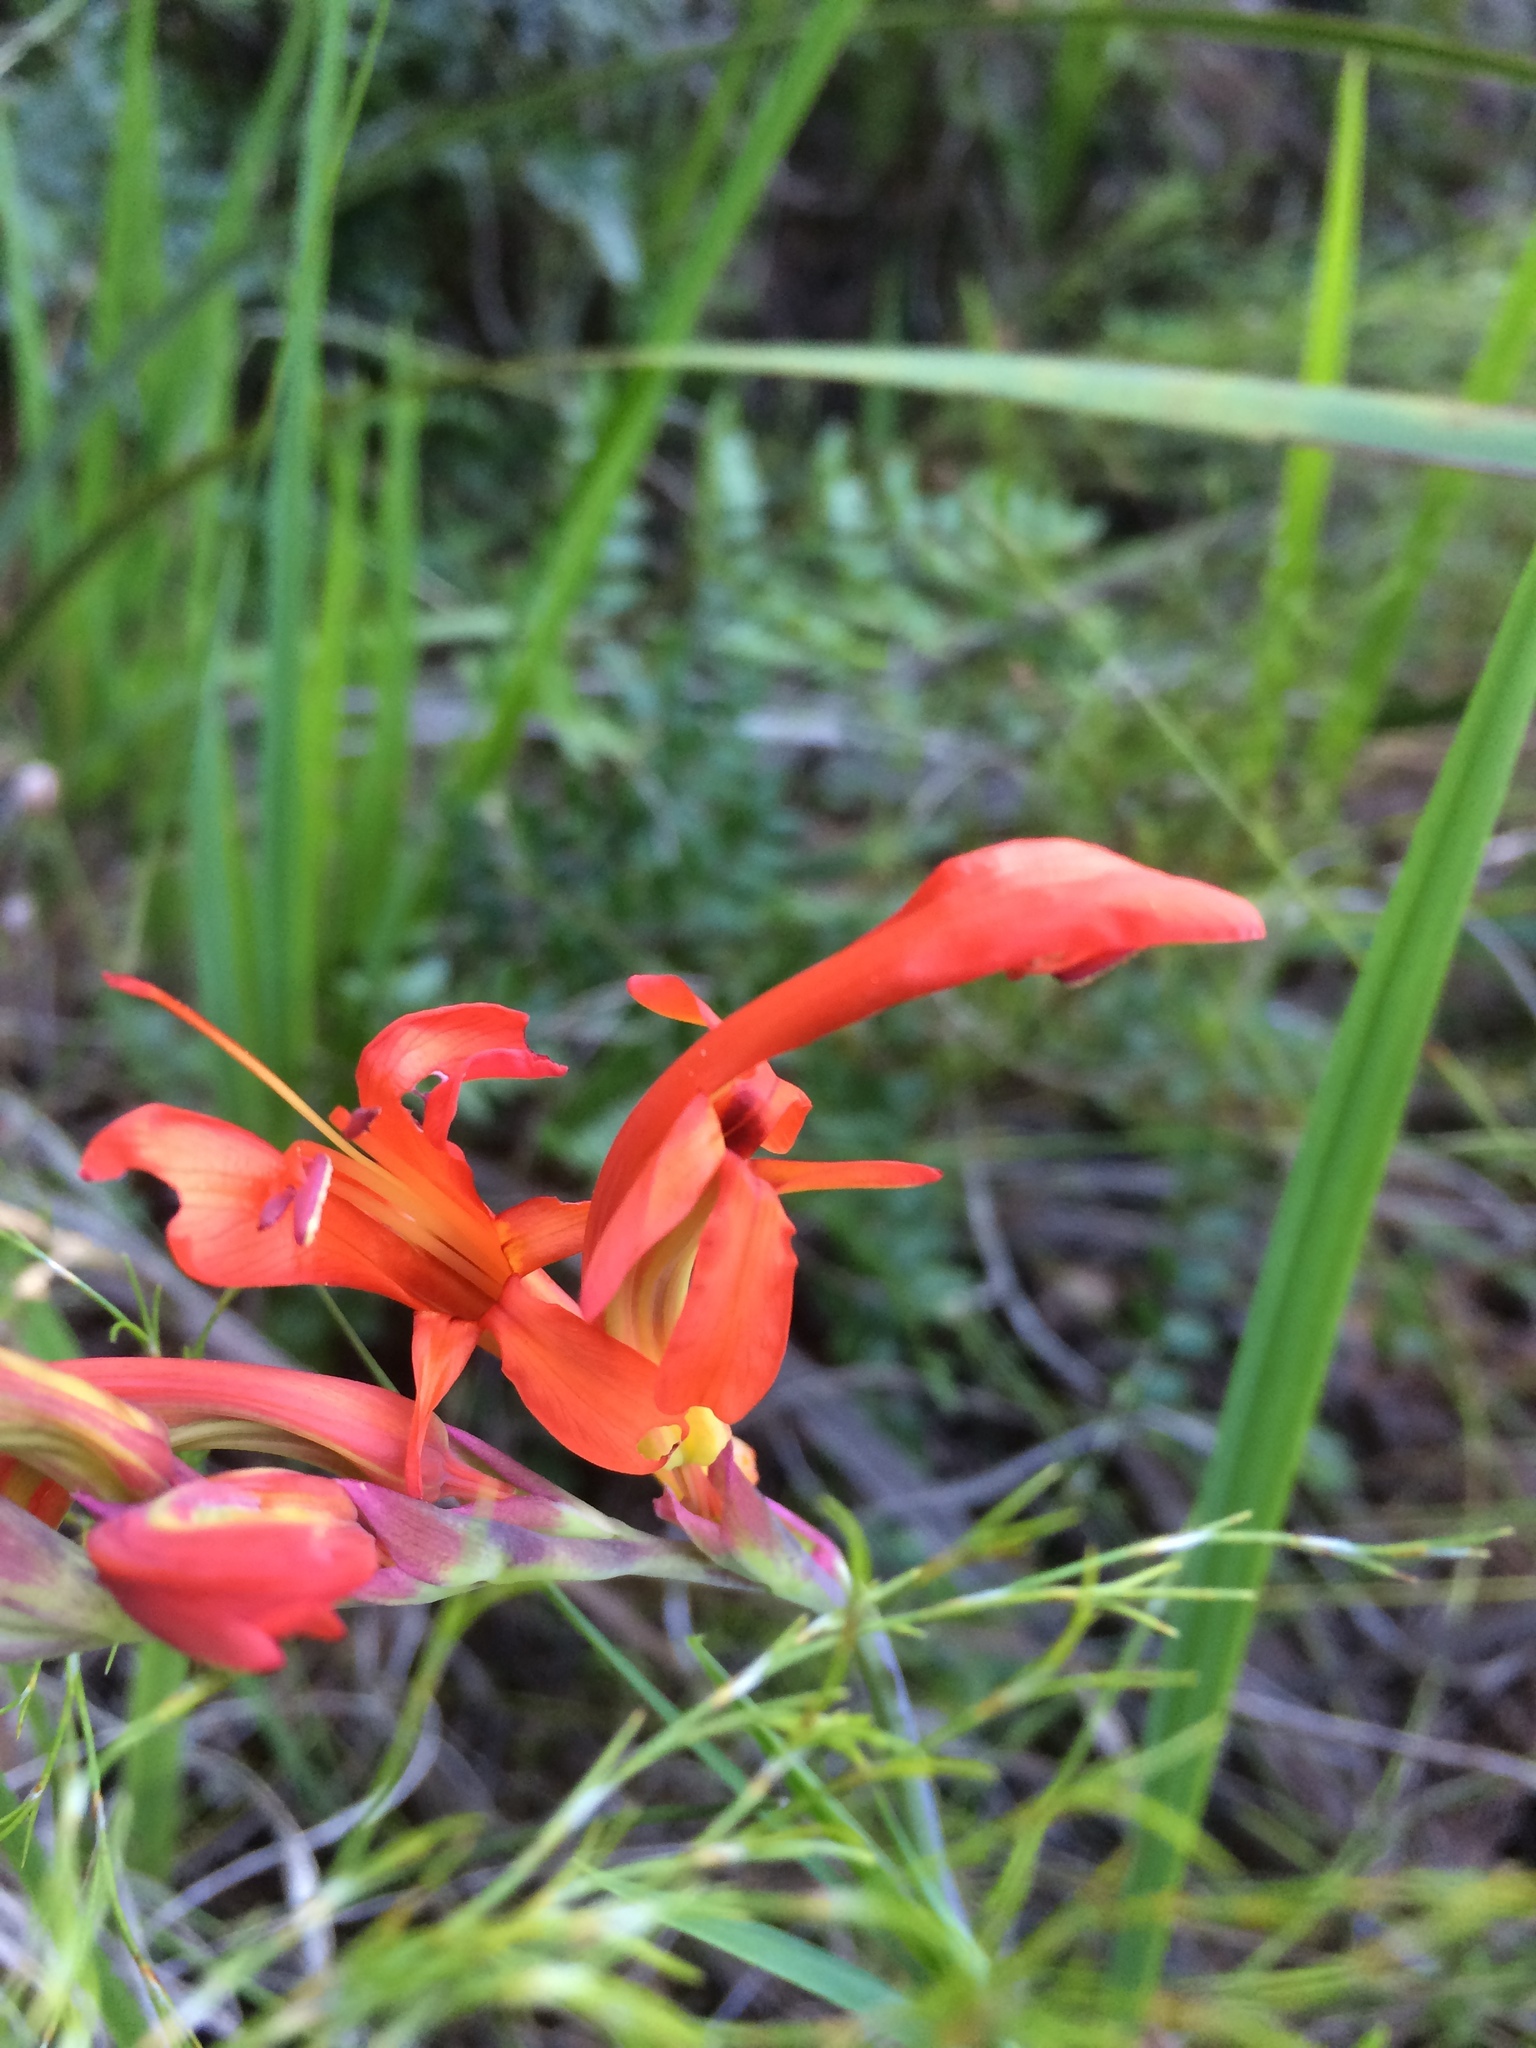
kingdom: Plantae
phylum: Tracheophyta
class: Liliopsida
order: Asparagales
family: Iridaceae
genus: Chasmanthe
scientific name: Chasmanthe aethiopica
